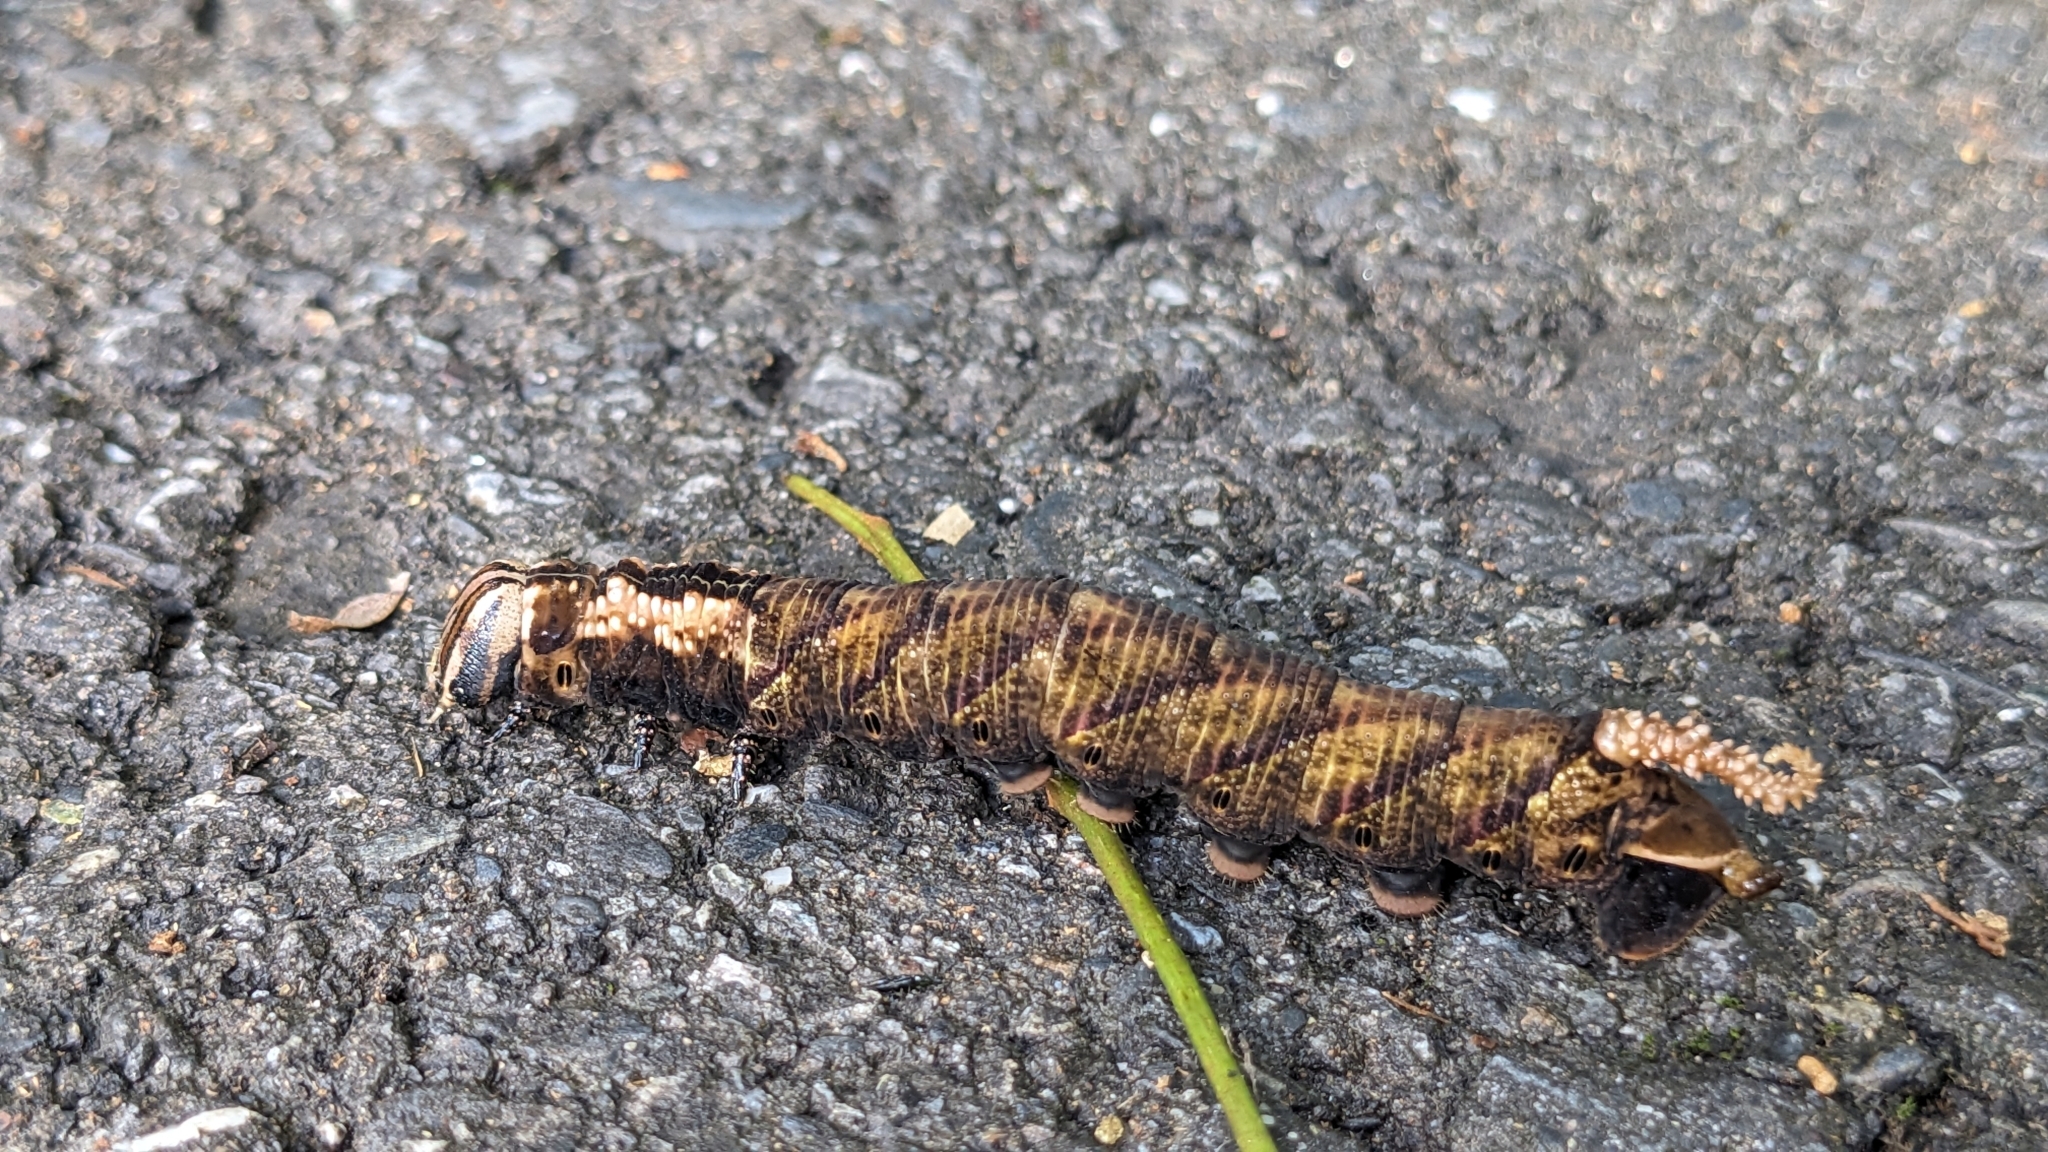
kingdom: Animalia
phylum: Arthropoda
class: Insecta
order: Lepidoptera
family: Sphingidae
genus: Acherontia
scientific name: Acherontia lachesis
